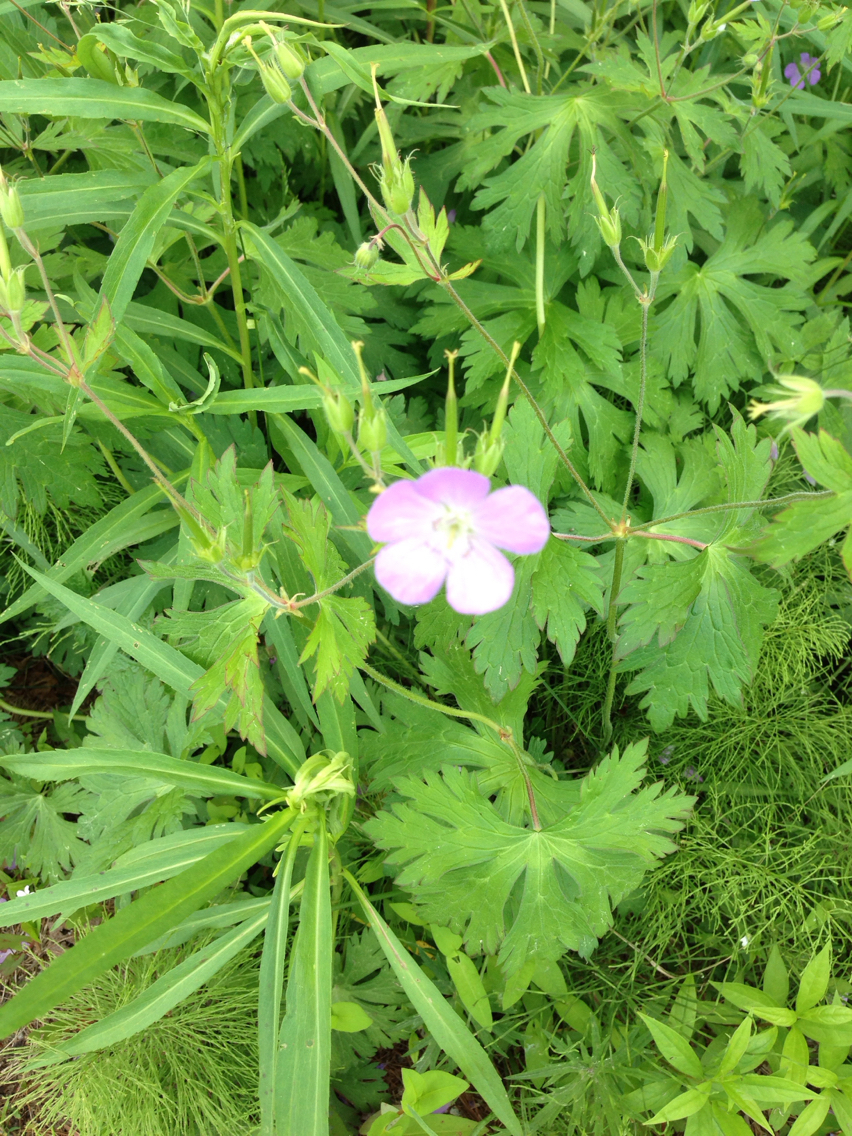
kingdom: Plantae
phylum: Tracheophyta
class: Magnoliopsida
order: Geraniales
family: Geraniaceae
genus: Geranium
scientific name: Geranium maculatum
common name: Spotted geranium
